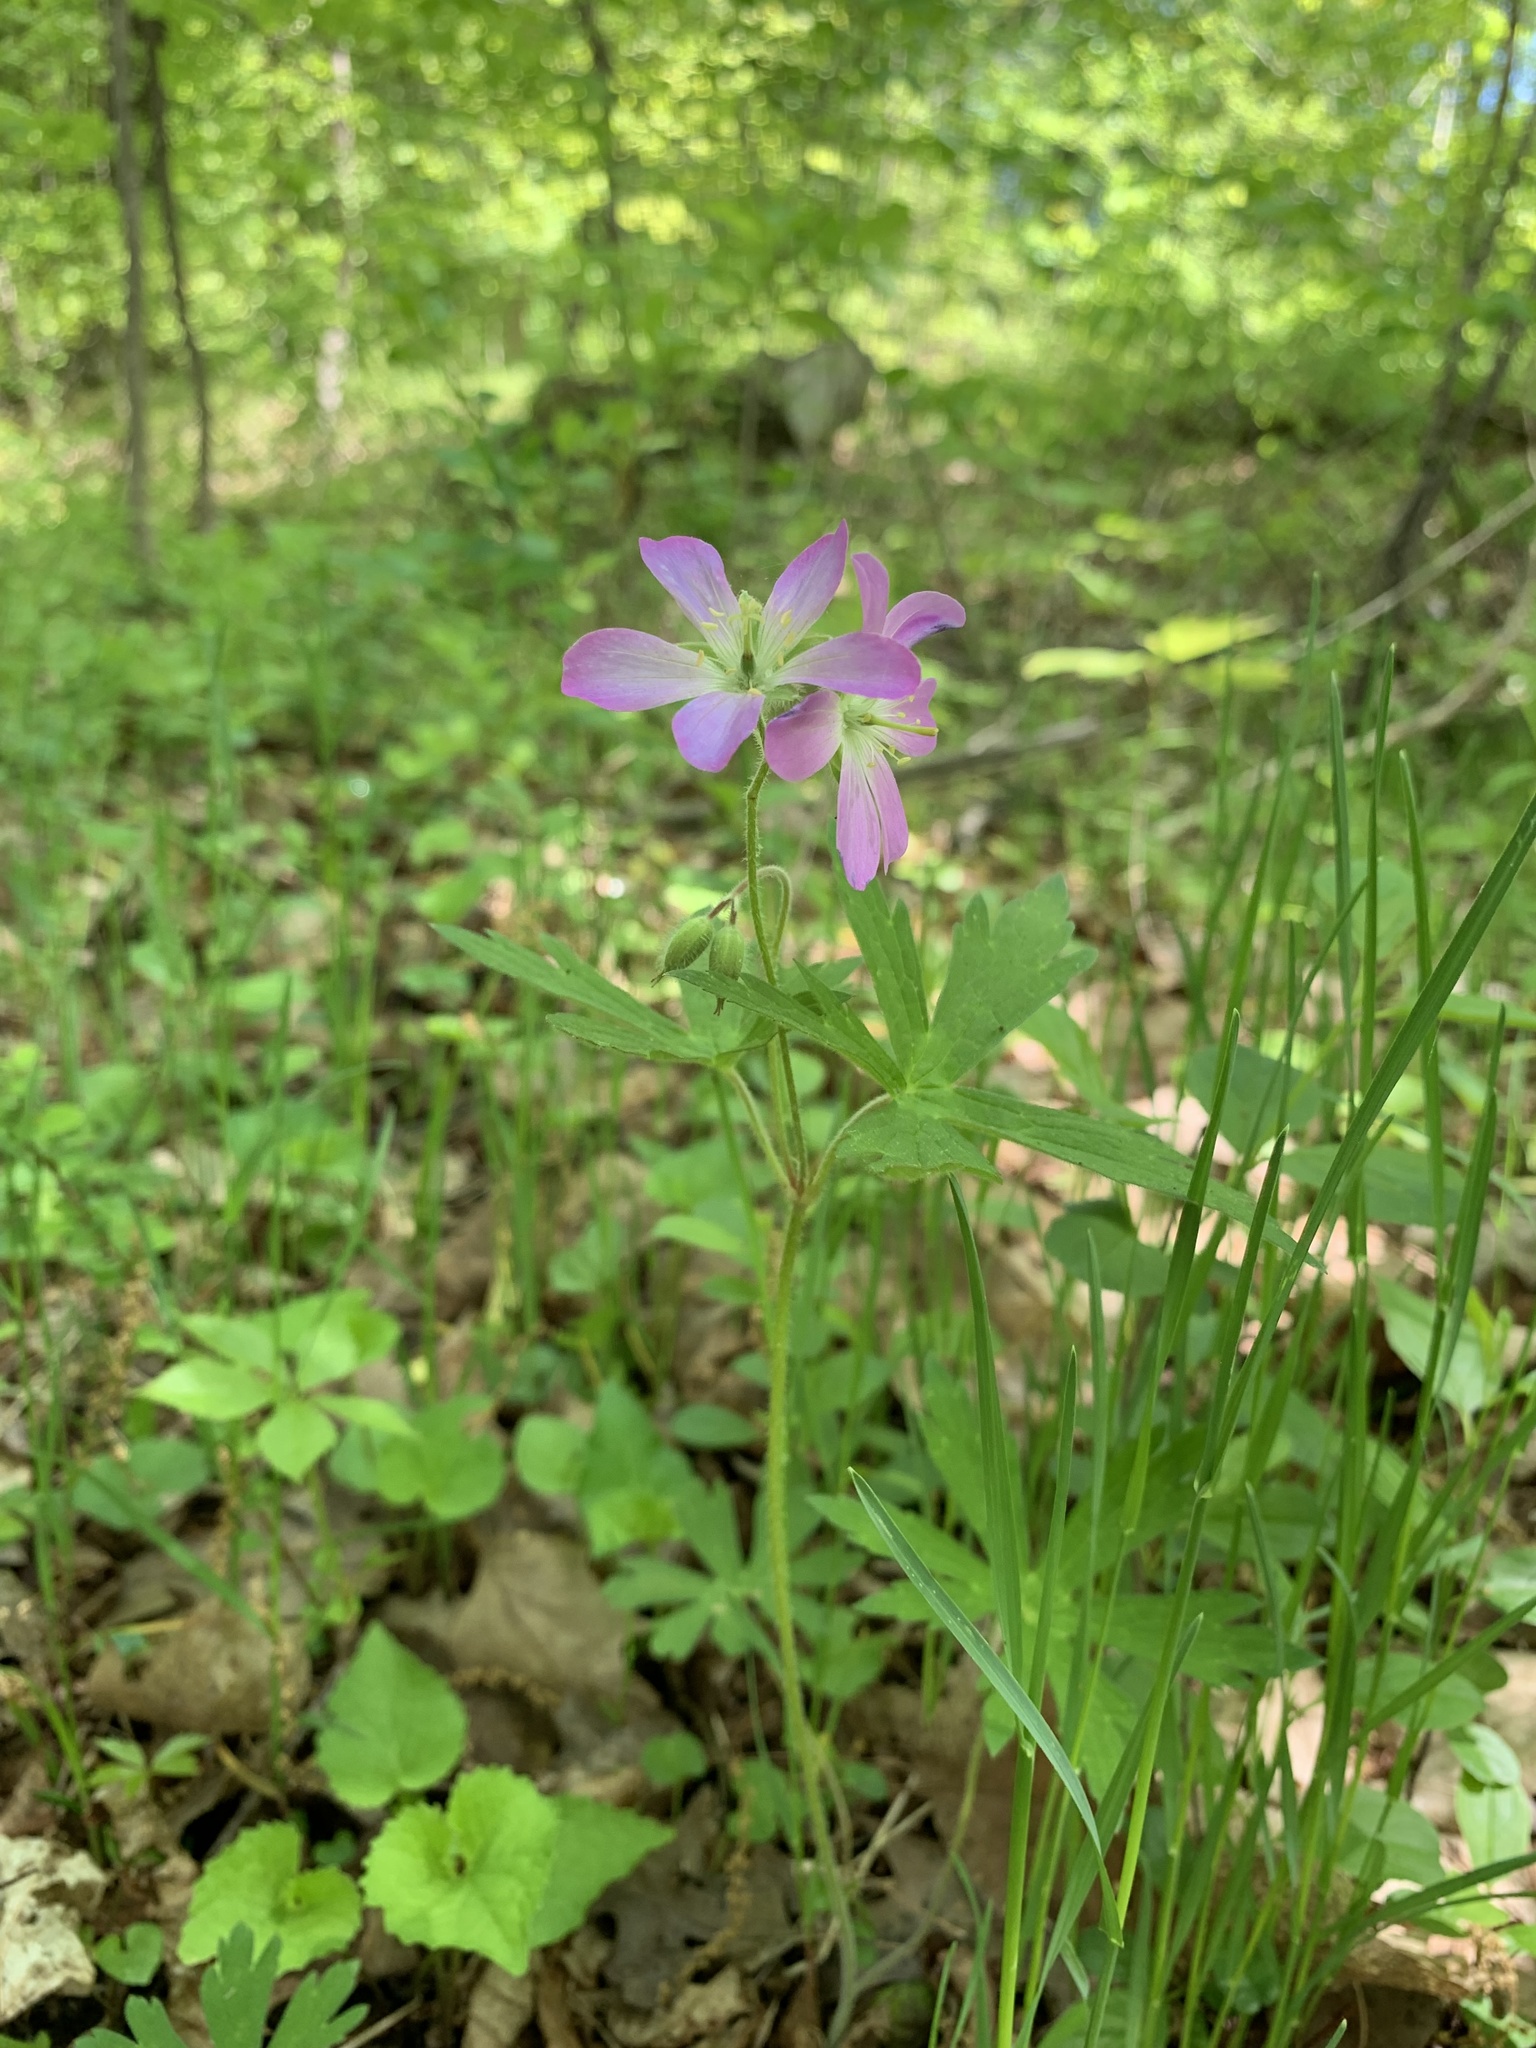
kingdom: Plantae
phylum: Tracheophyta
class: Magnoliopsida
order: Geraniales
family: Geraniaceae
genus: Geranium
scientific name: Geranium maculatum
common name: Spotted geranium
